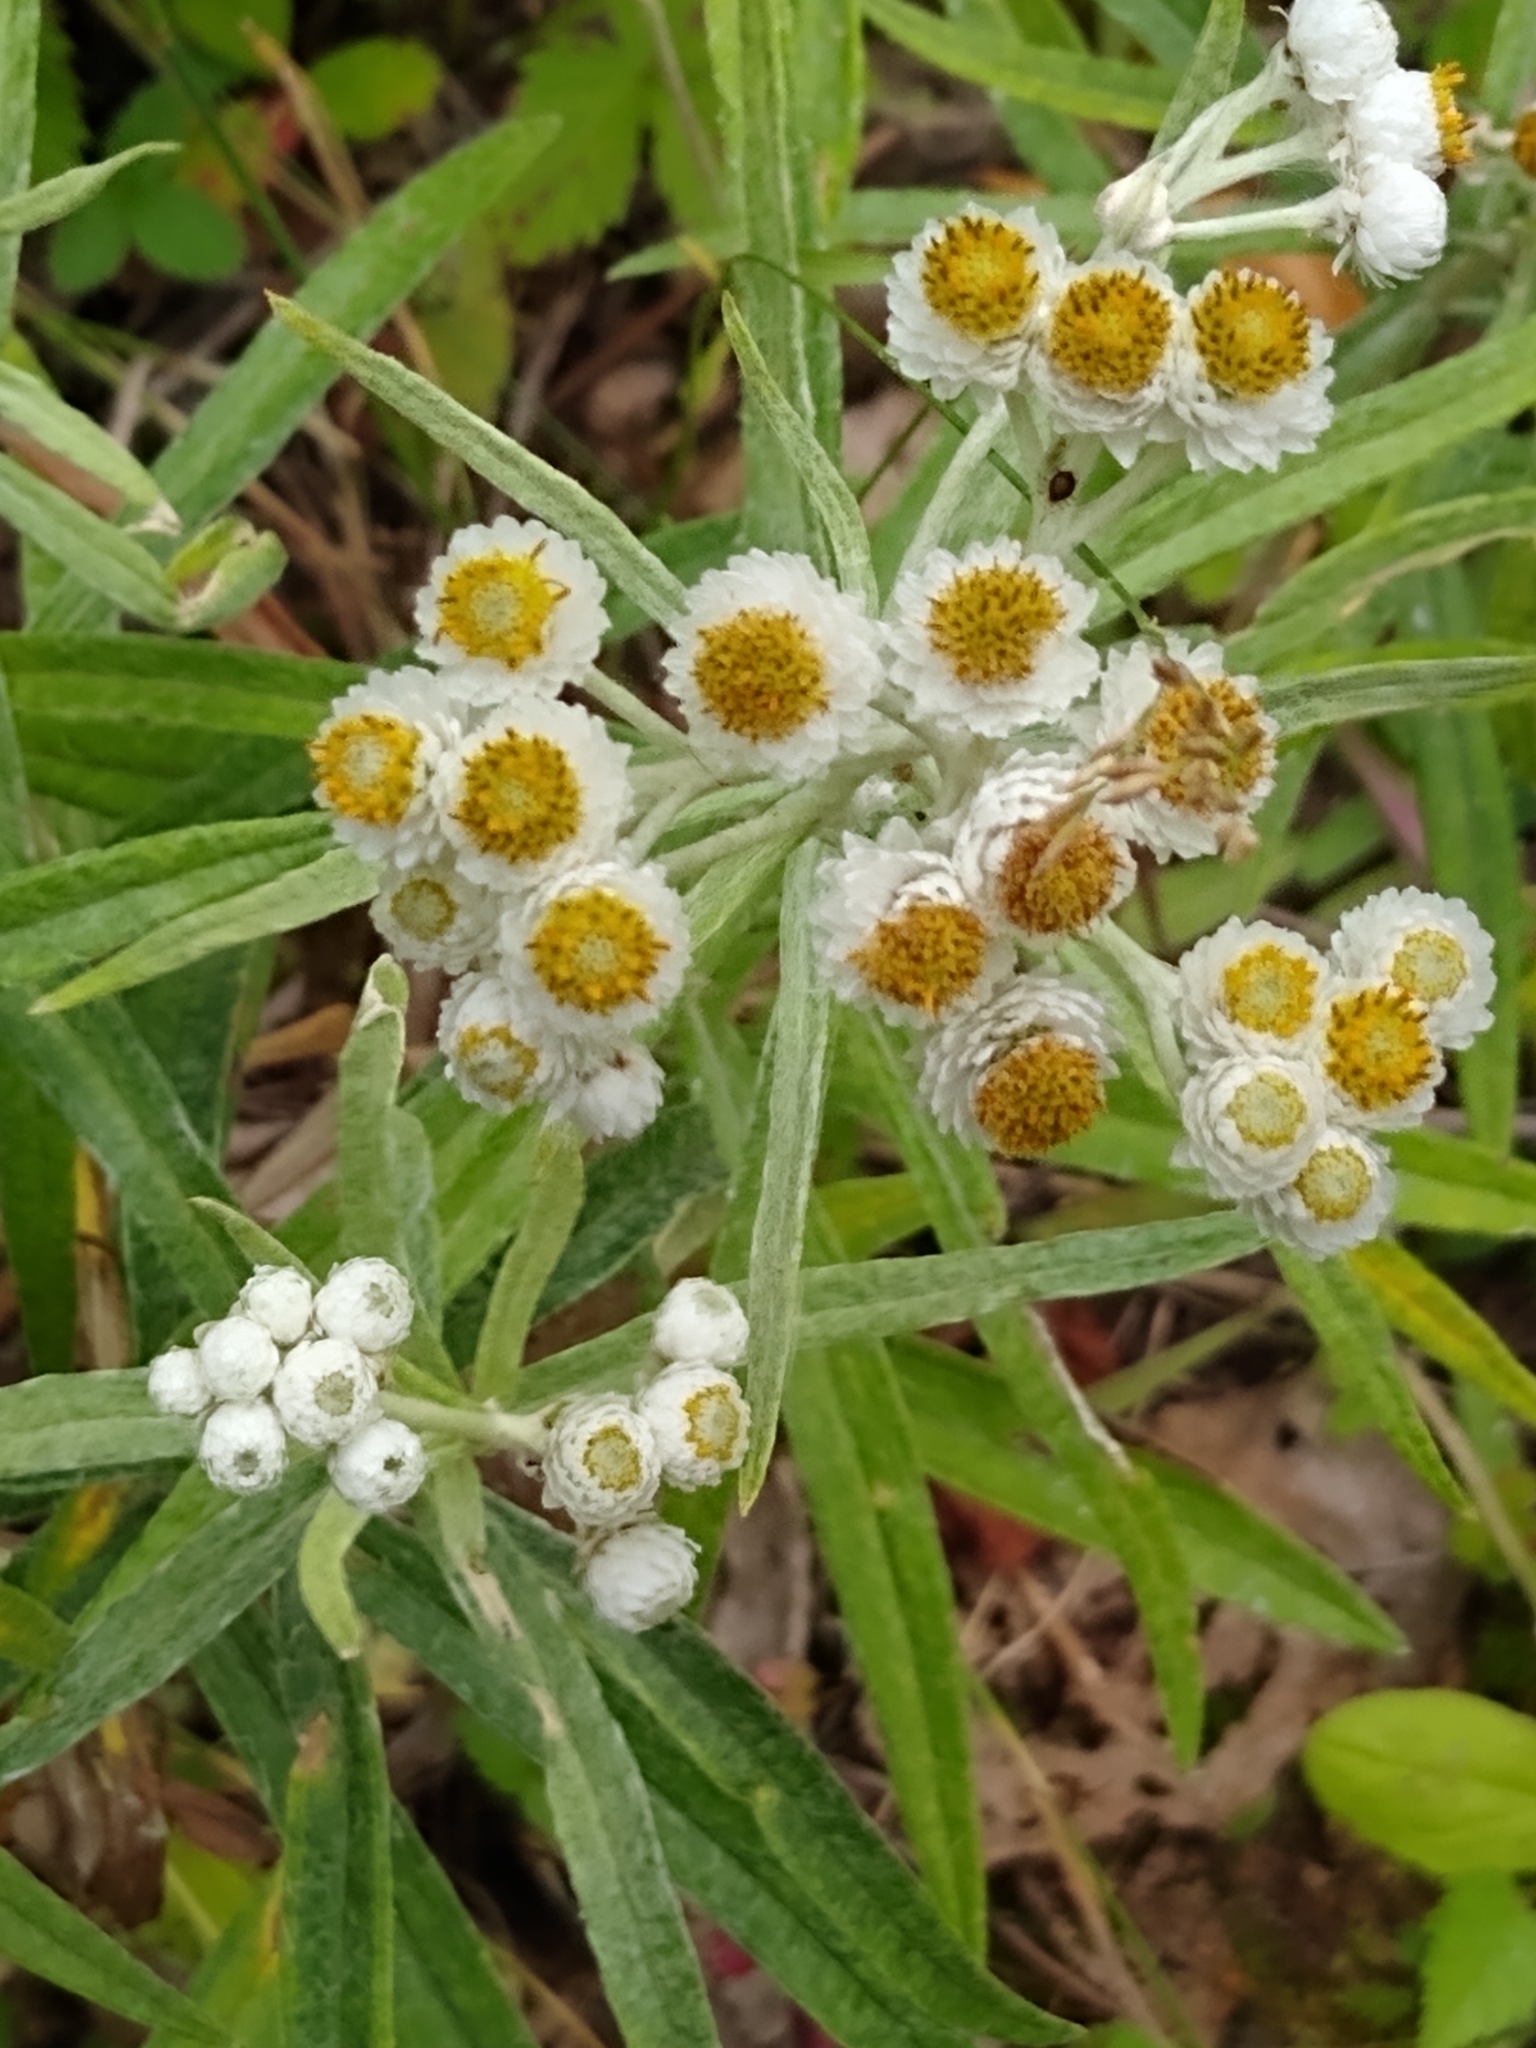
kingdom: Plantae
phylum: Tracheophyta
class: Magnoliopsida
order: Asterales
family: Asteraceae
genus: Anaphalis
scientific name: Anaphalis margaritacea
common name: Pearly everlasting
